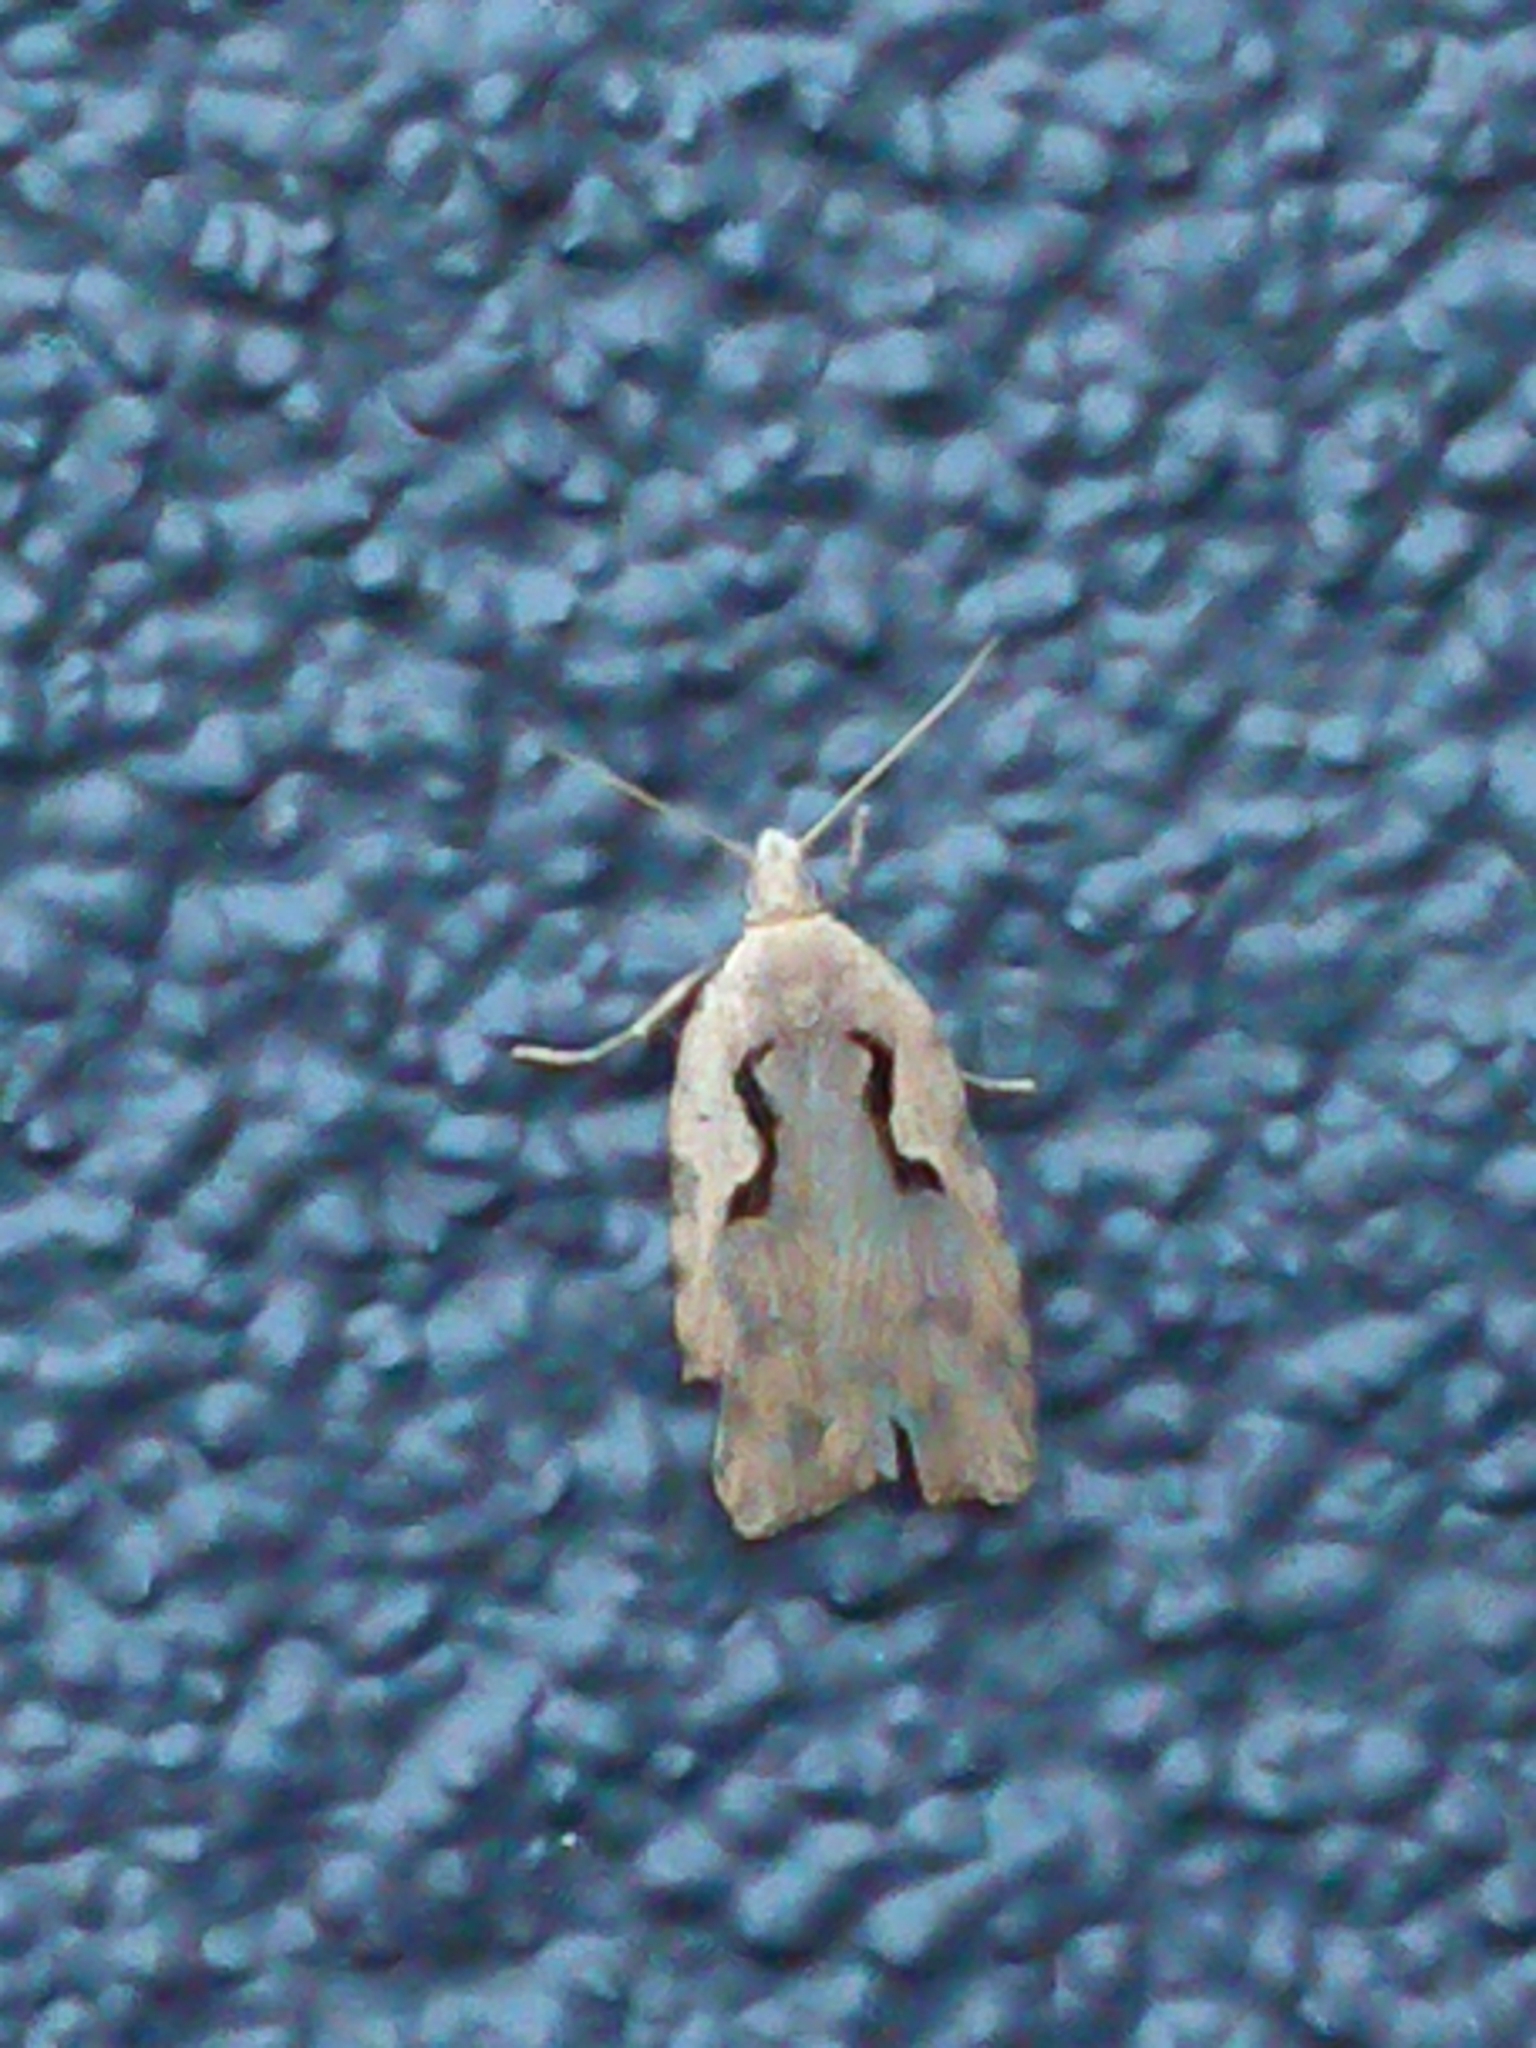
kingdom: Animalia
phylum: Arthropoda
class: Insecta
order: Lepidoptera
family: Tortricidae
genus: Cnephasia
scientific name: Cnephasia jactatana
